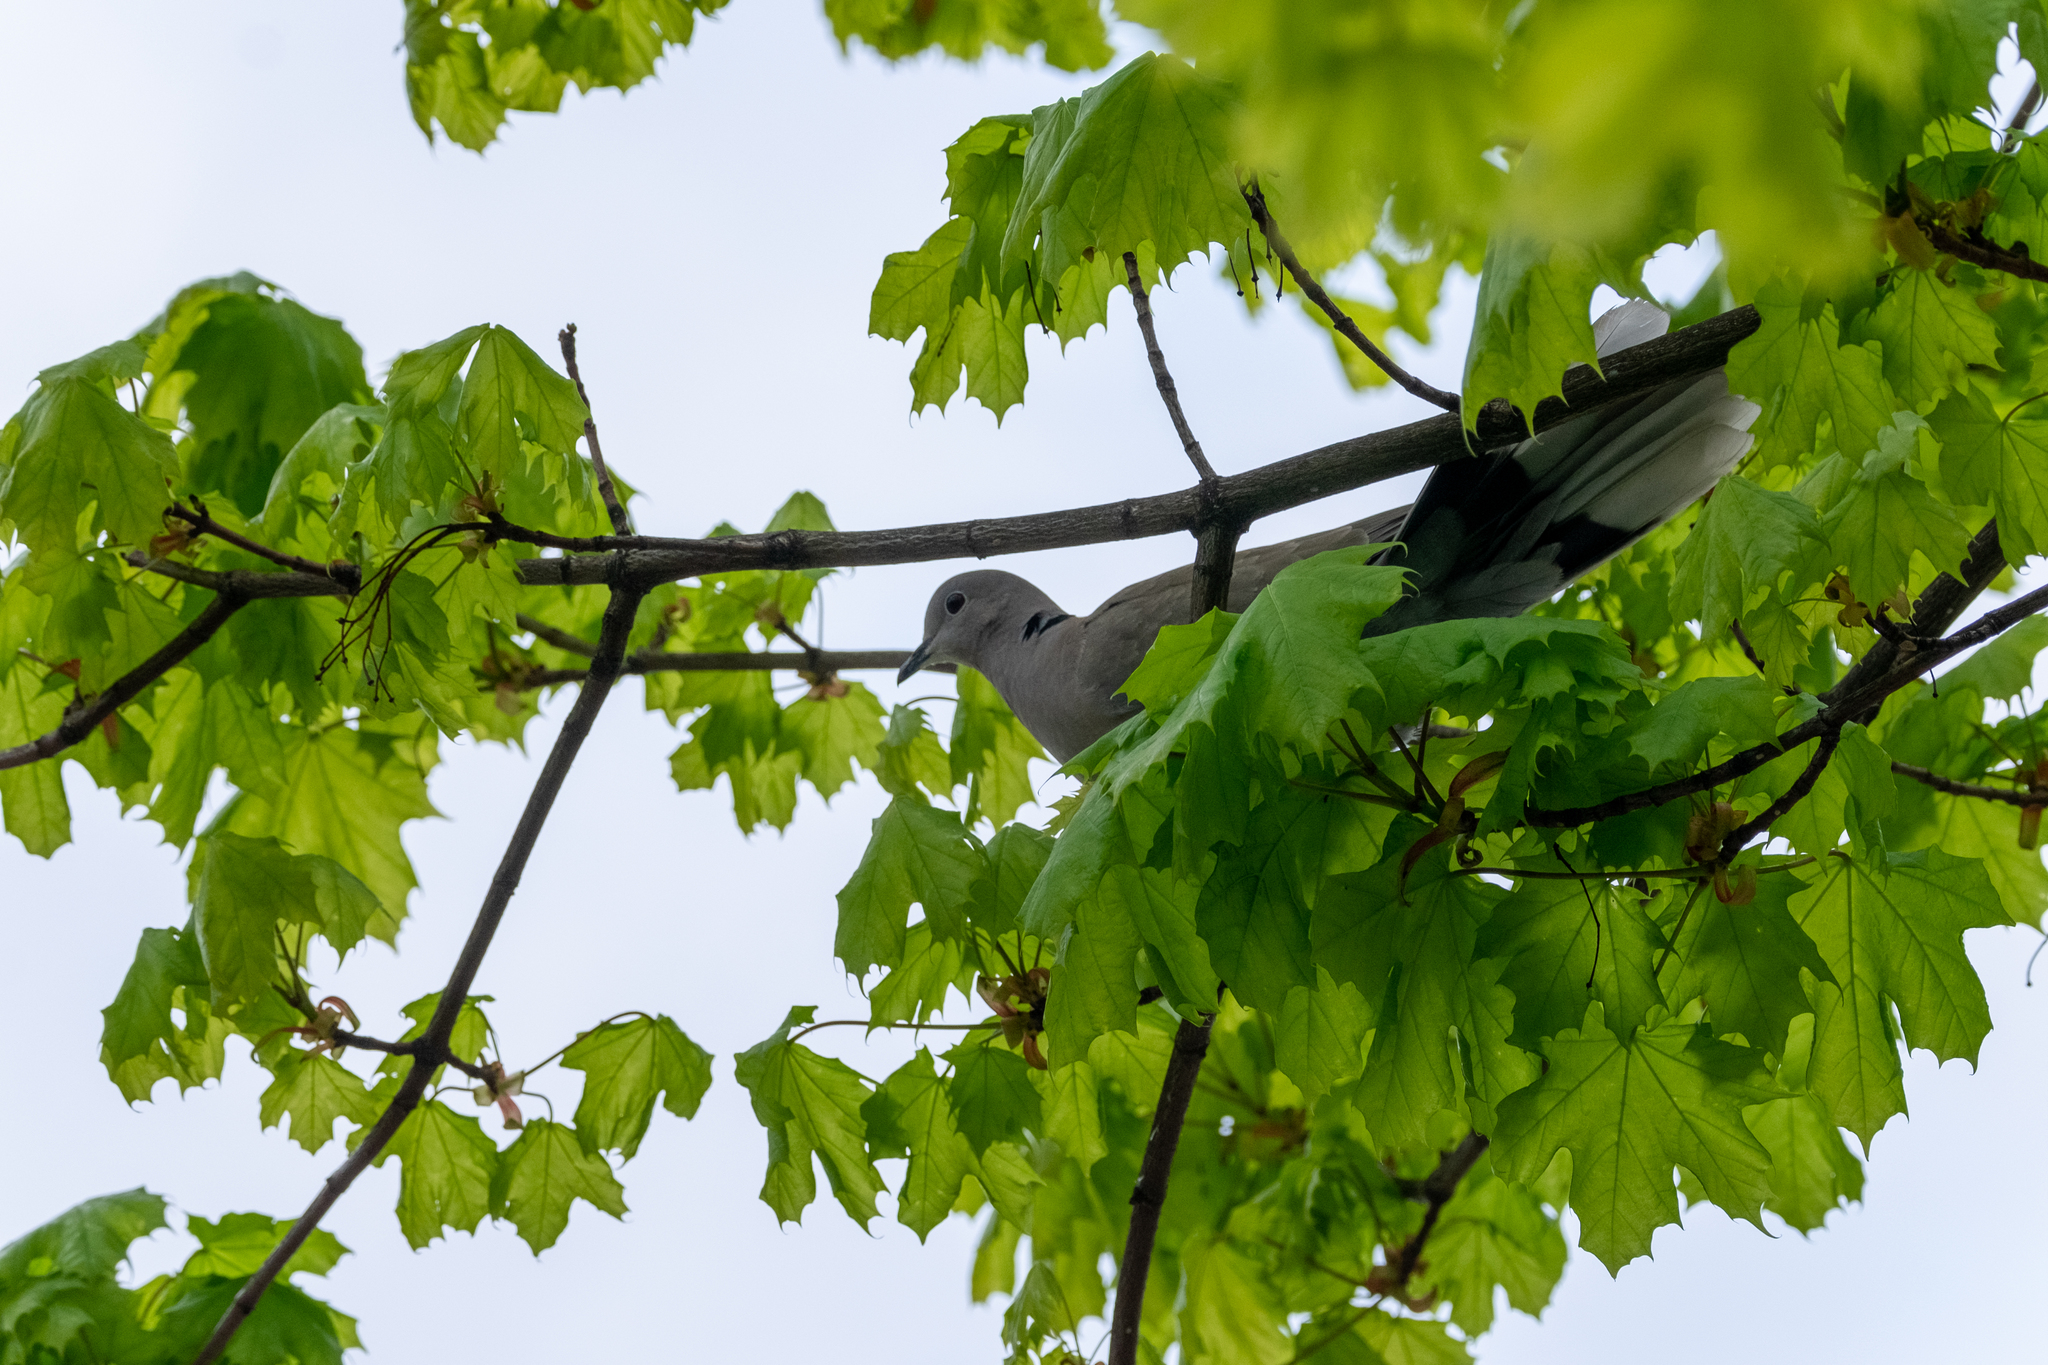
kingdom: Animalia
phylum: Chordata
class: Aves
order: Columbiformes
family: Columbidae
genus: Streptopelia
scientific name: Streptopelia decaocto
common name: Eurasian collared dove
